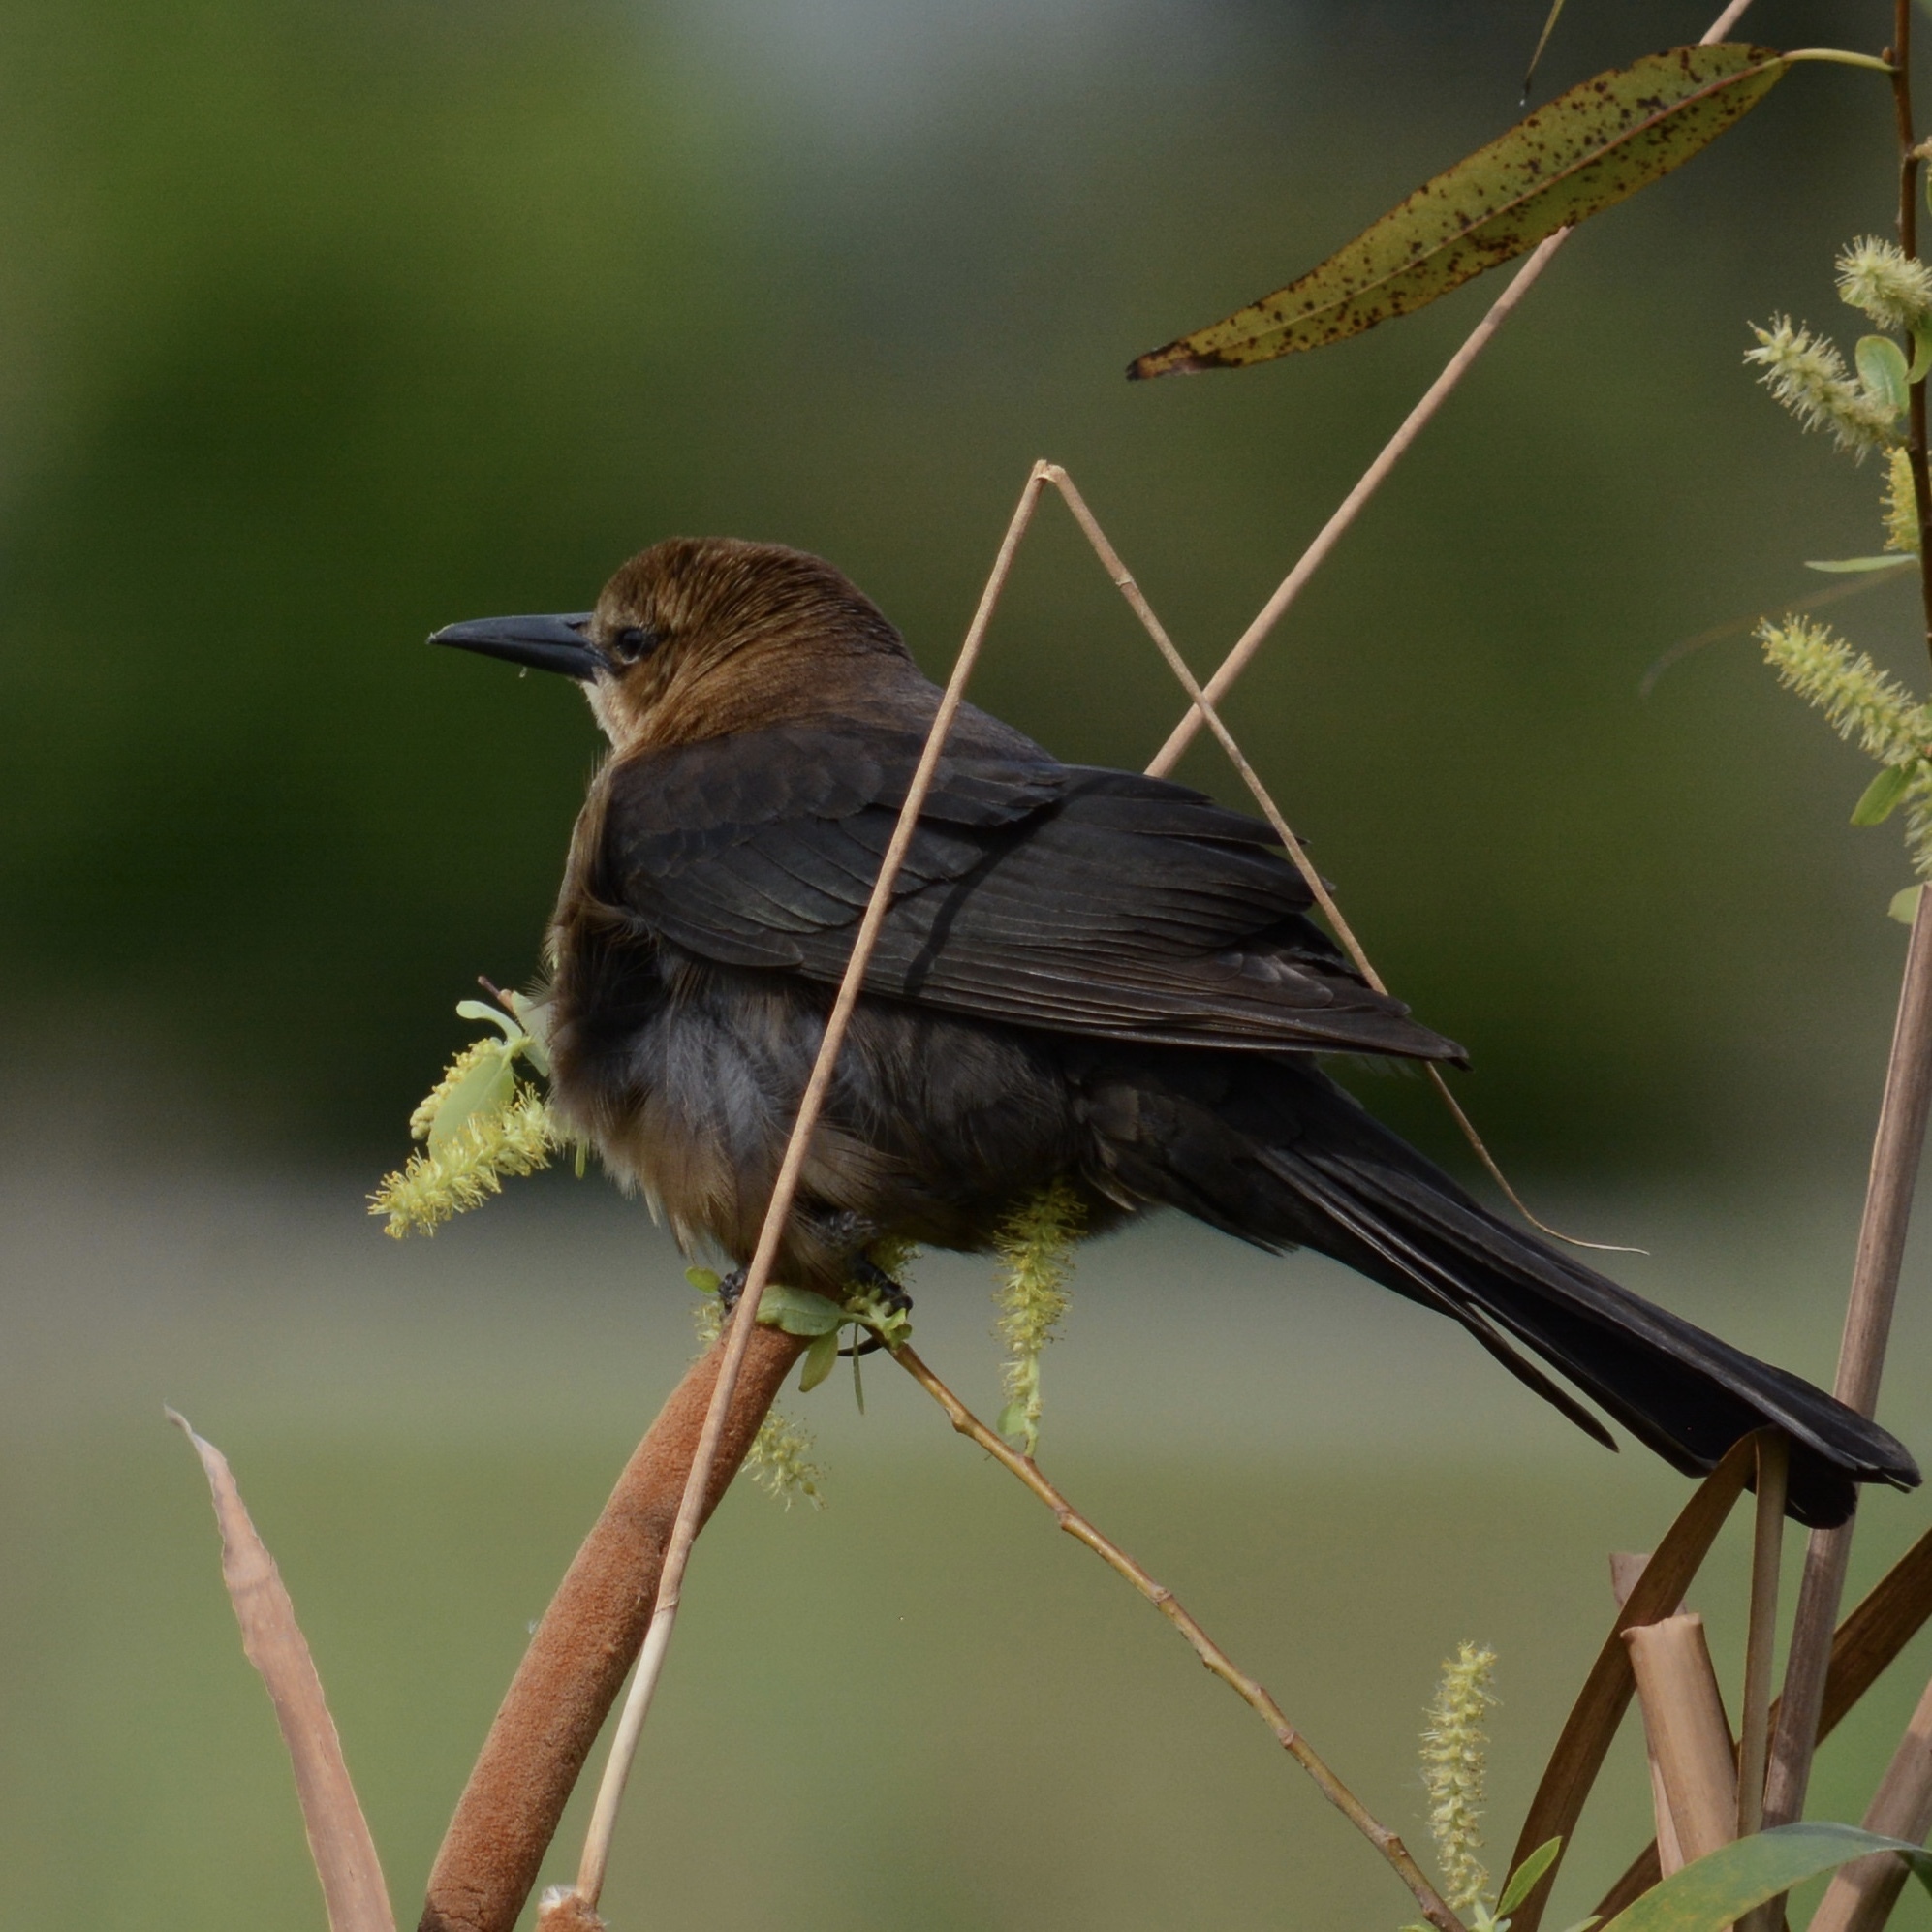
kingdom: Animalia
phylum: Chordata
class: Aves
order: Passeriformes
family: Icteridae
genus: Quiscalus
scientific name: Quiscalus major
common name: Boat-tailed grackle
